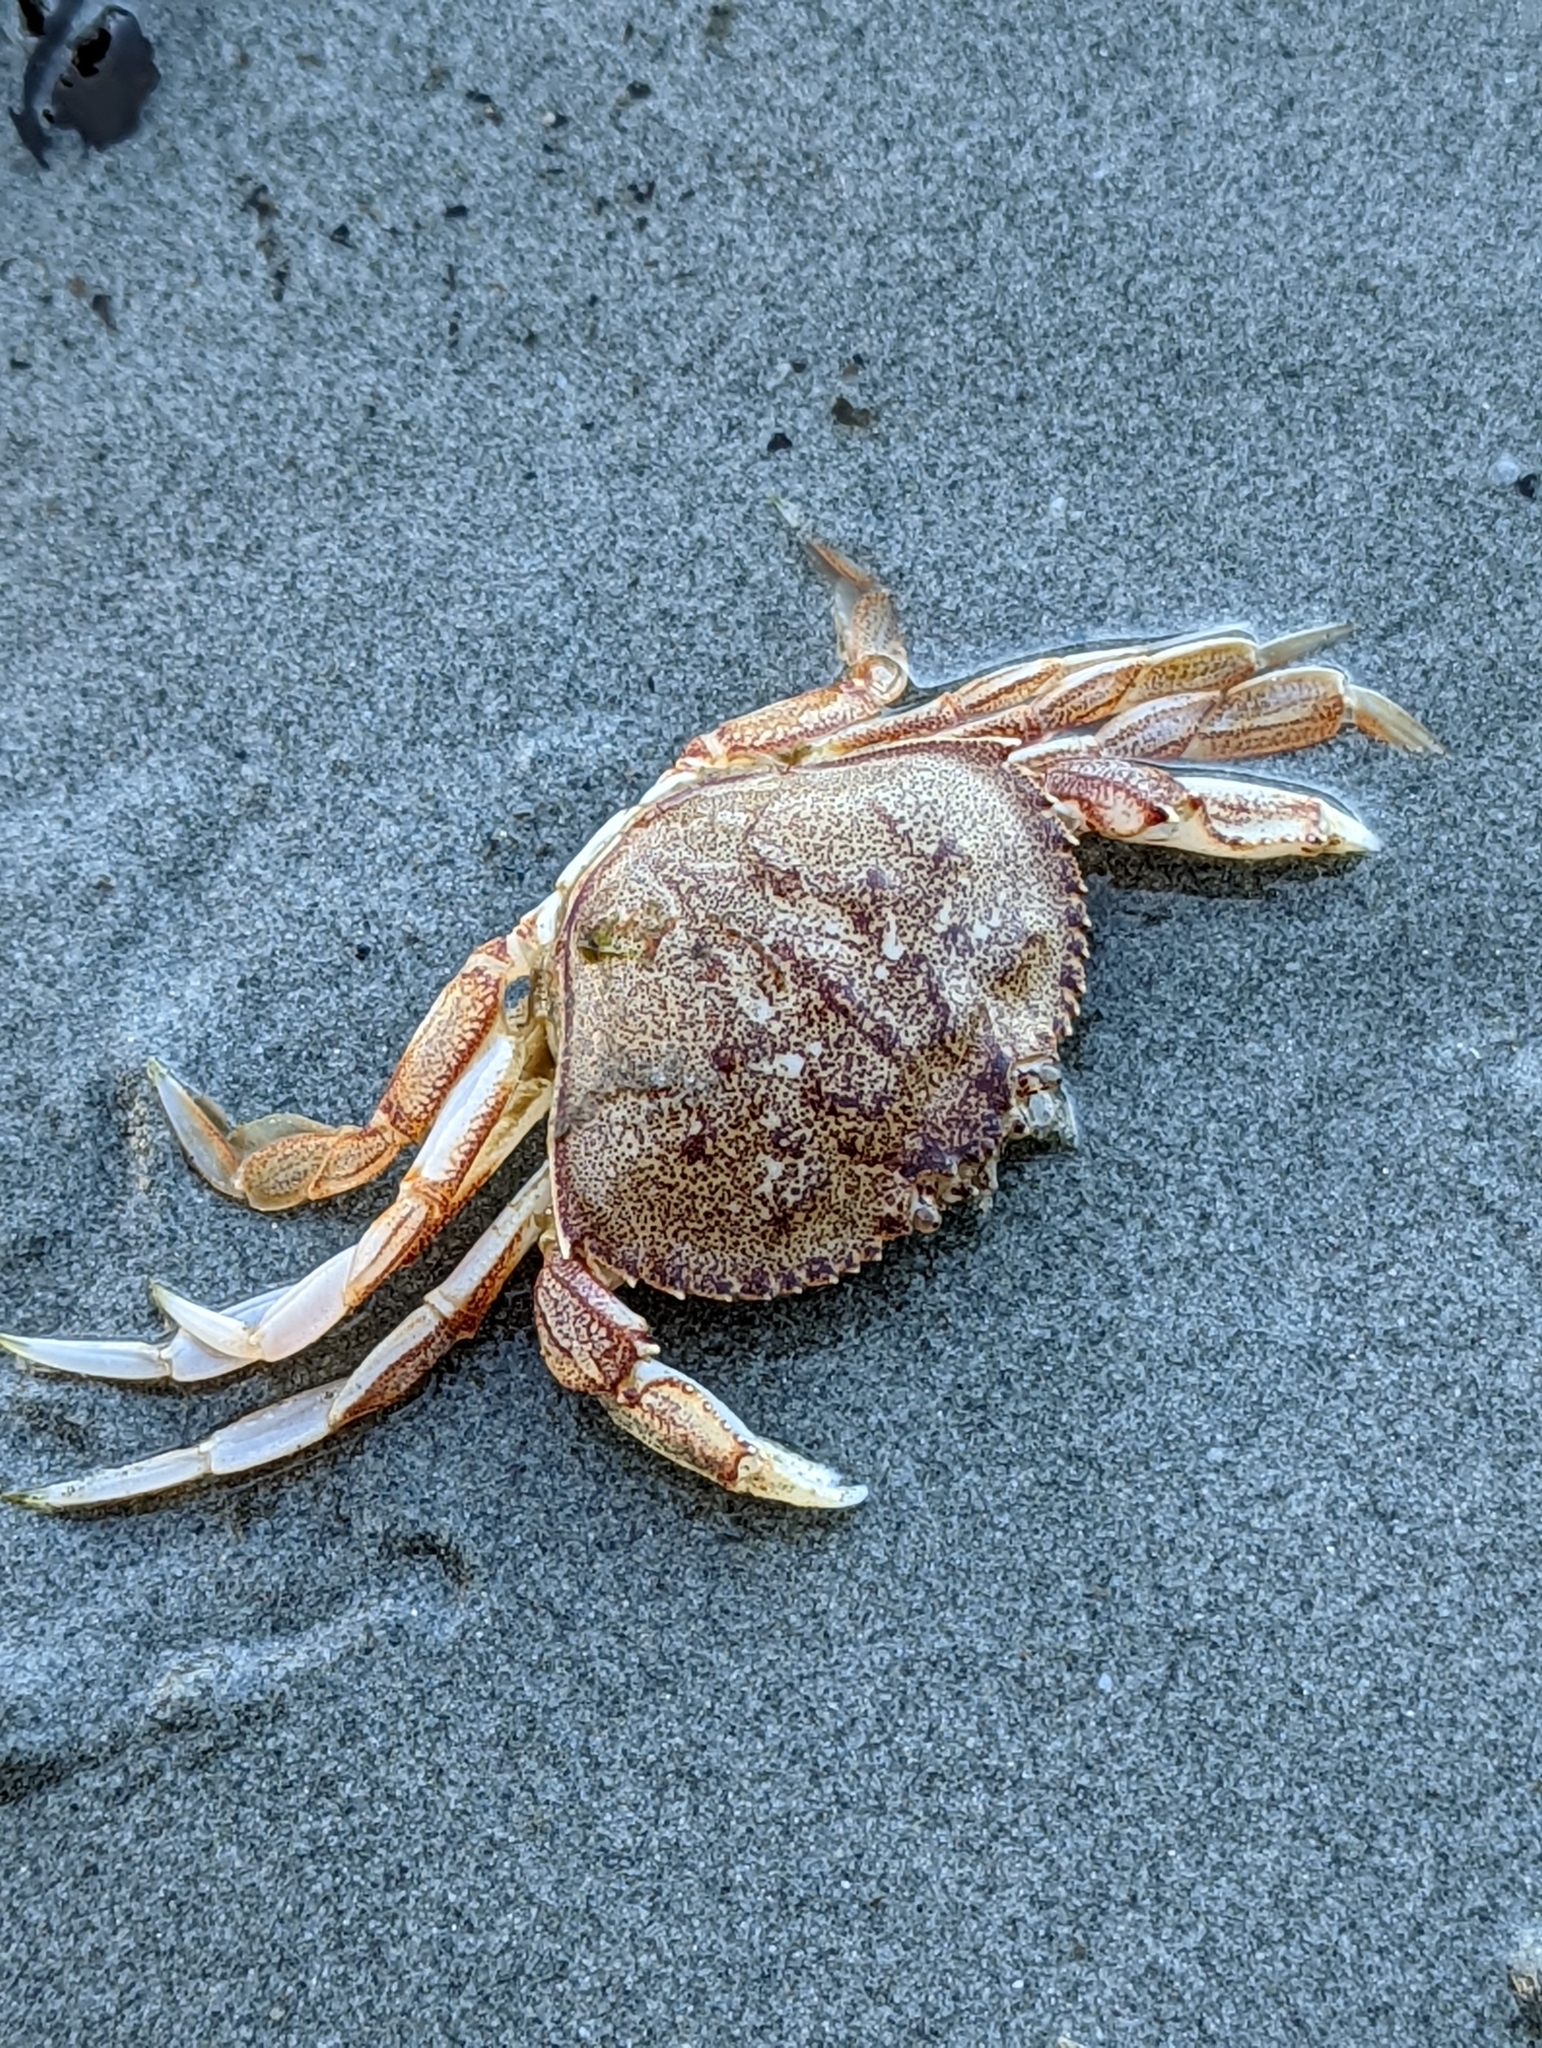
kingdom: Animalia
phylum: Arthropoda
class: Malacostraca
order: Decapoda
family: Cancridae
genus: Metacarcinus
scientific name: Metacarcinus magister
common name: Californian crab
